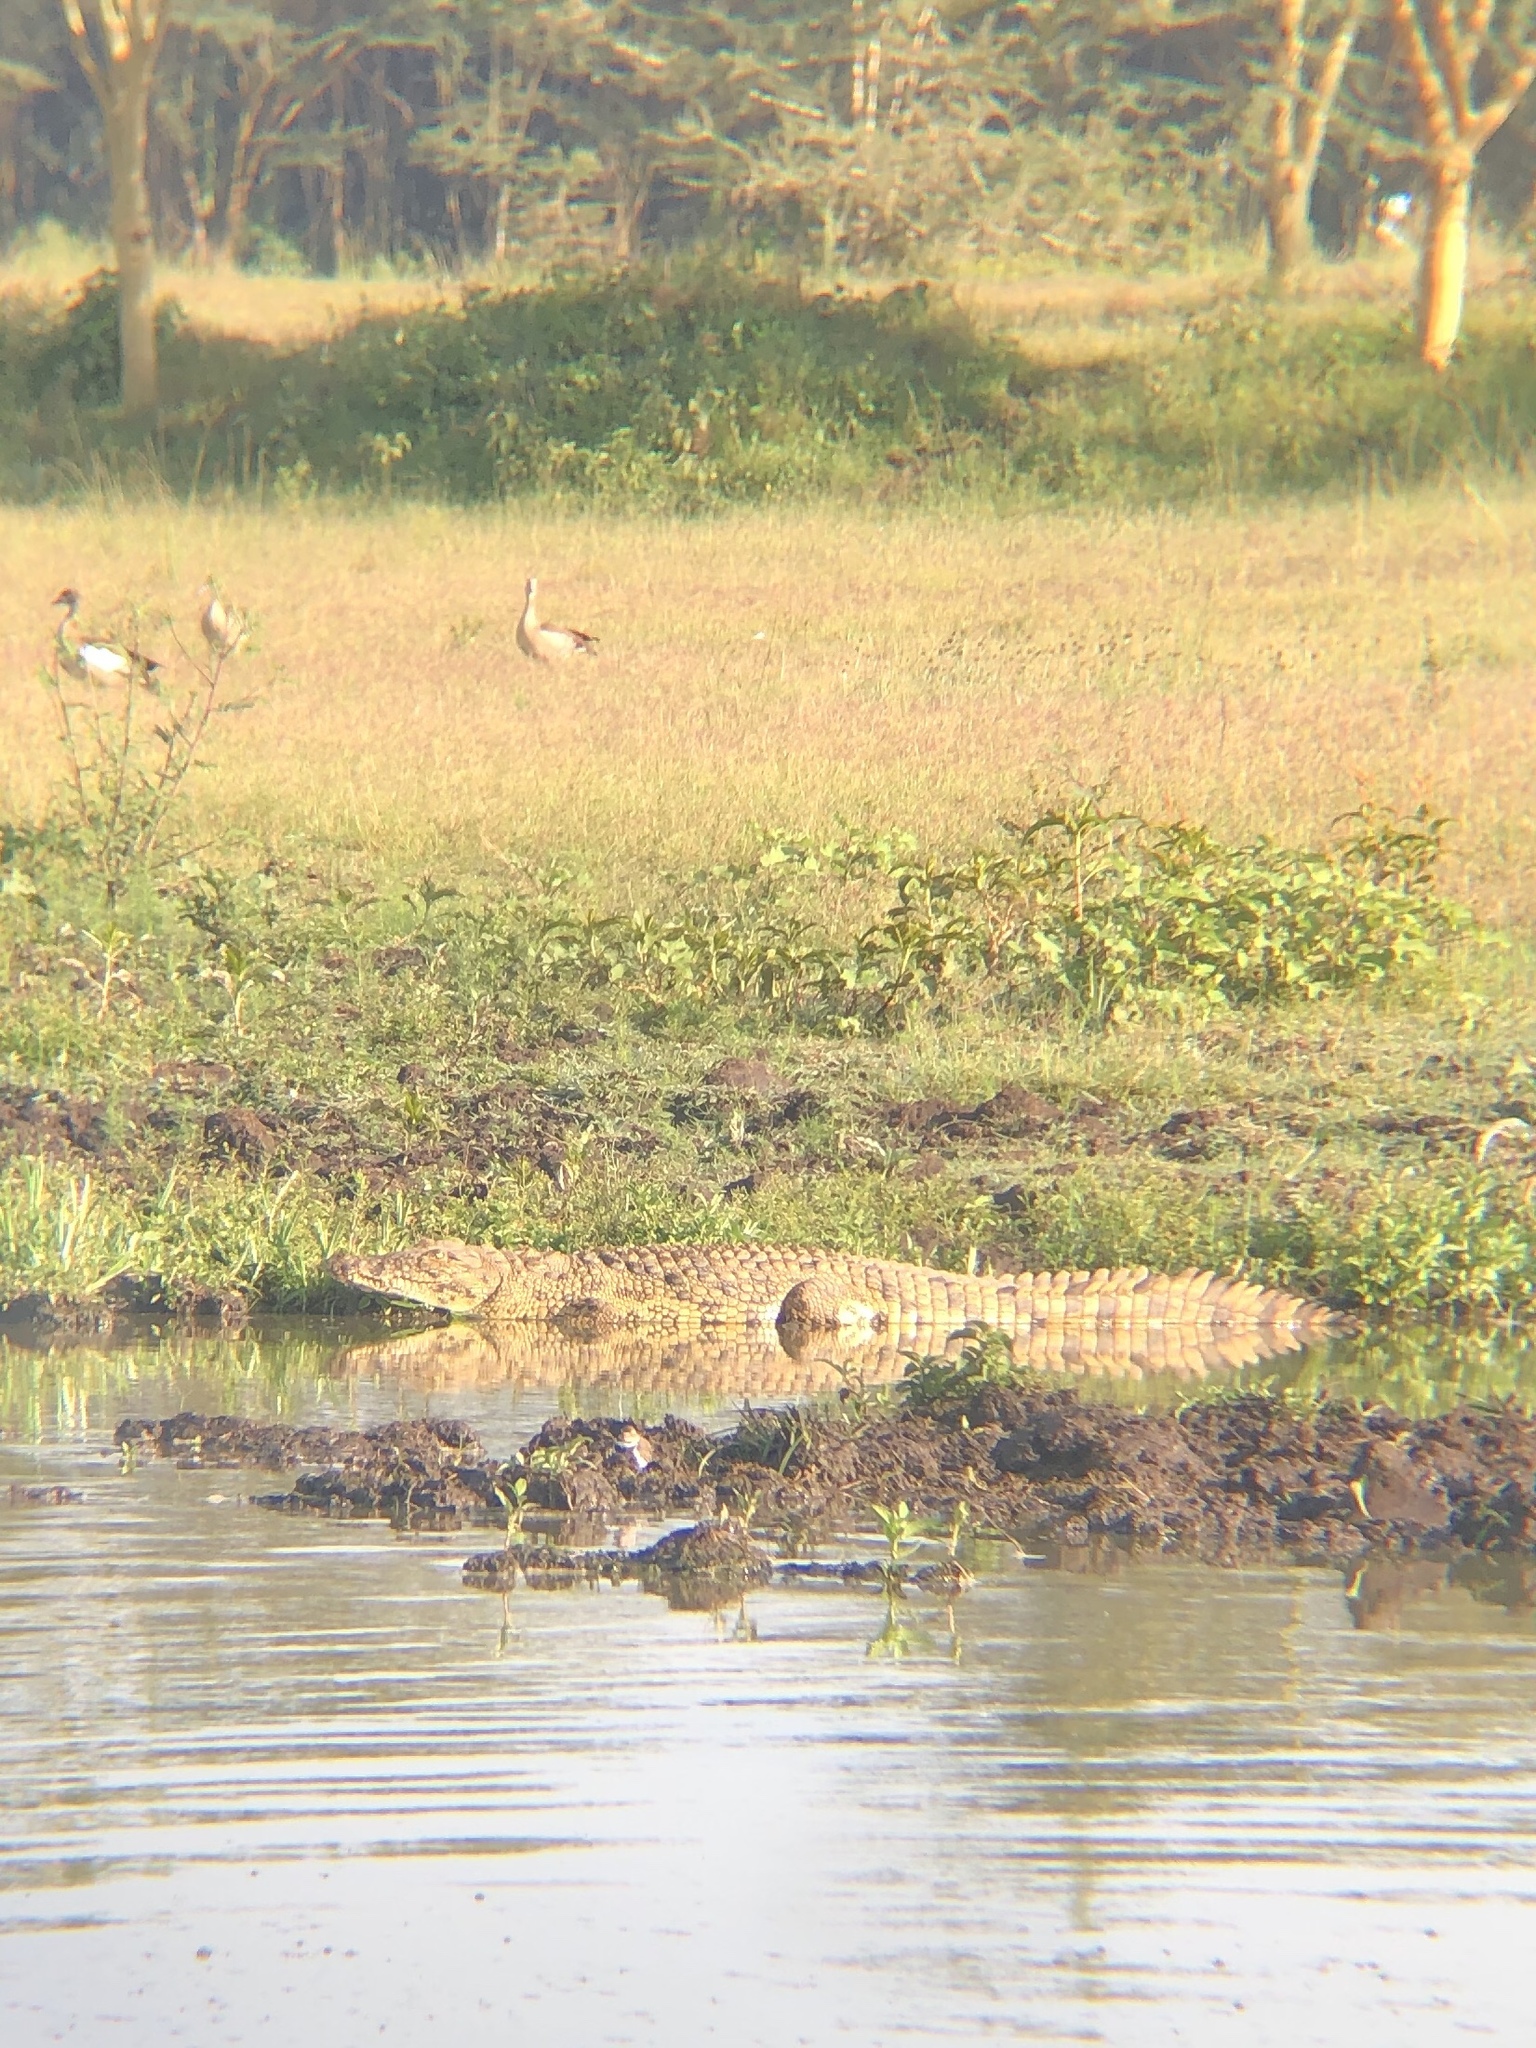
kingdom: Animalia
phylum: Chordata
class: Crocodylia
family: Crocodylidae
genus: Crocodylus
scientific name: Crocodylus niloticus
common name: Nile crocodile
